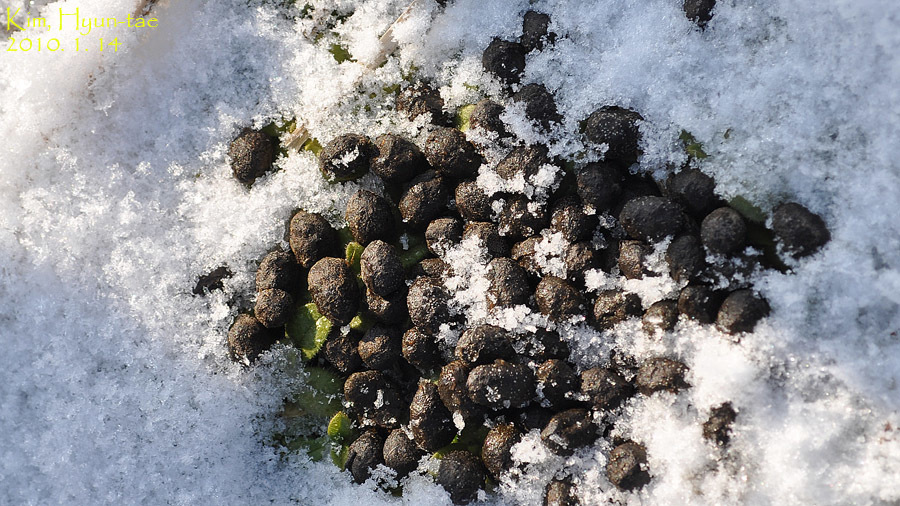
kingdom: Animalia
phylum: Chordata
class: Mammalia
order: Artiodactyla
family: Cervidae
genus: Hydropotes
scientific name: Hydropotes inermis
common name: Chinese water deer
